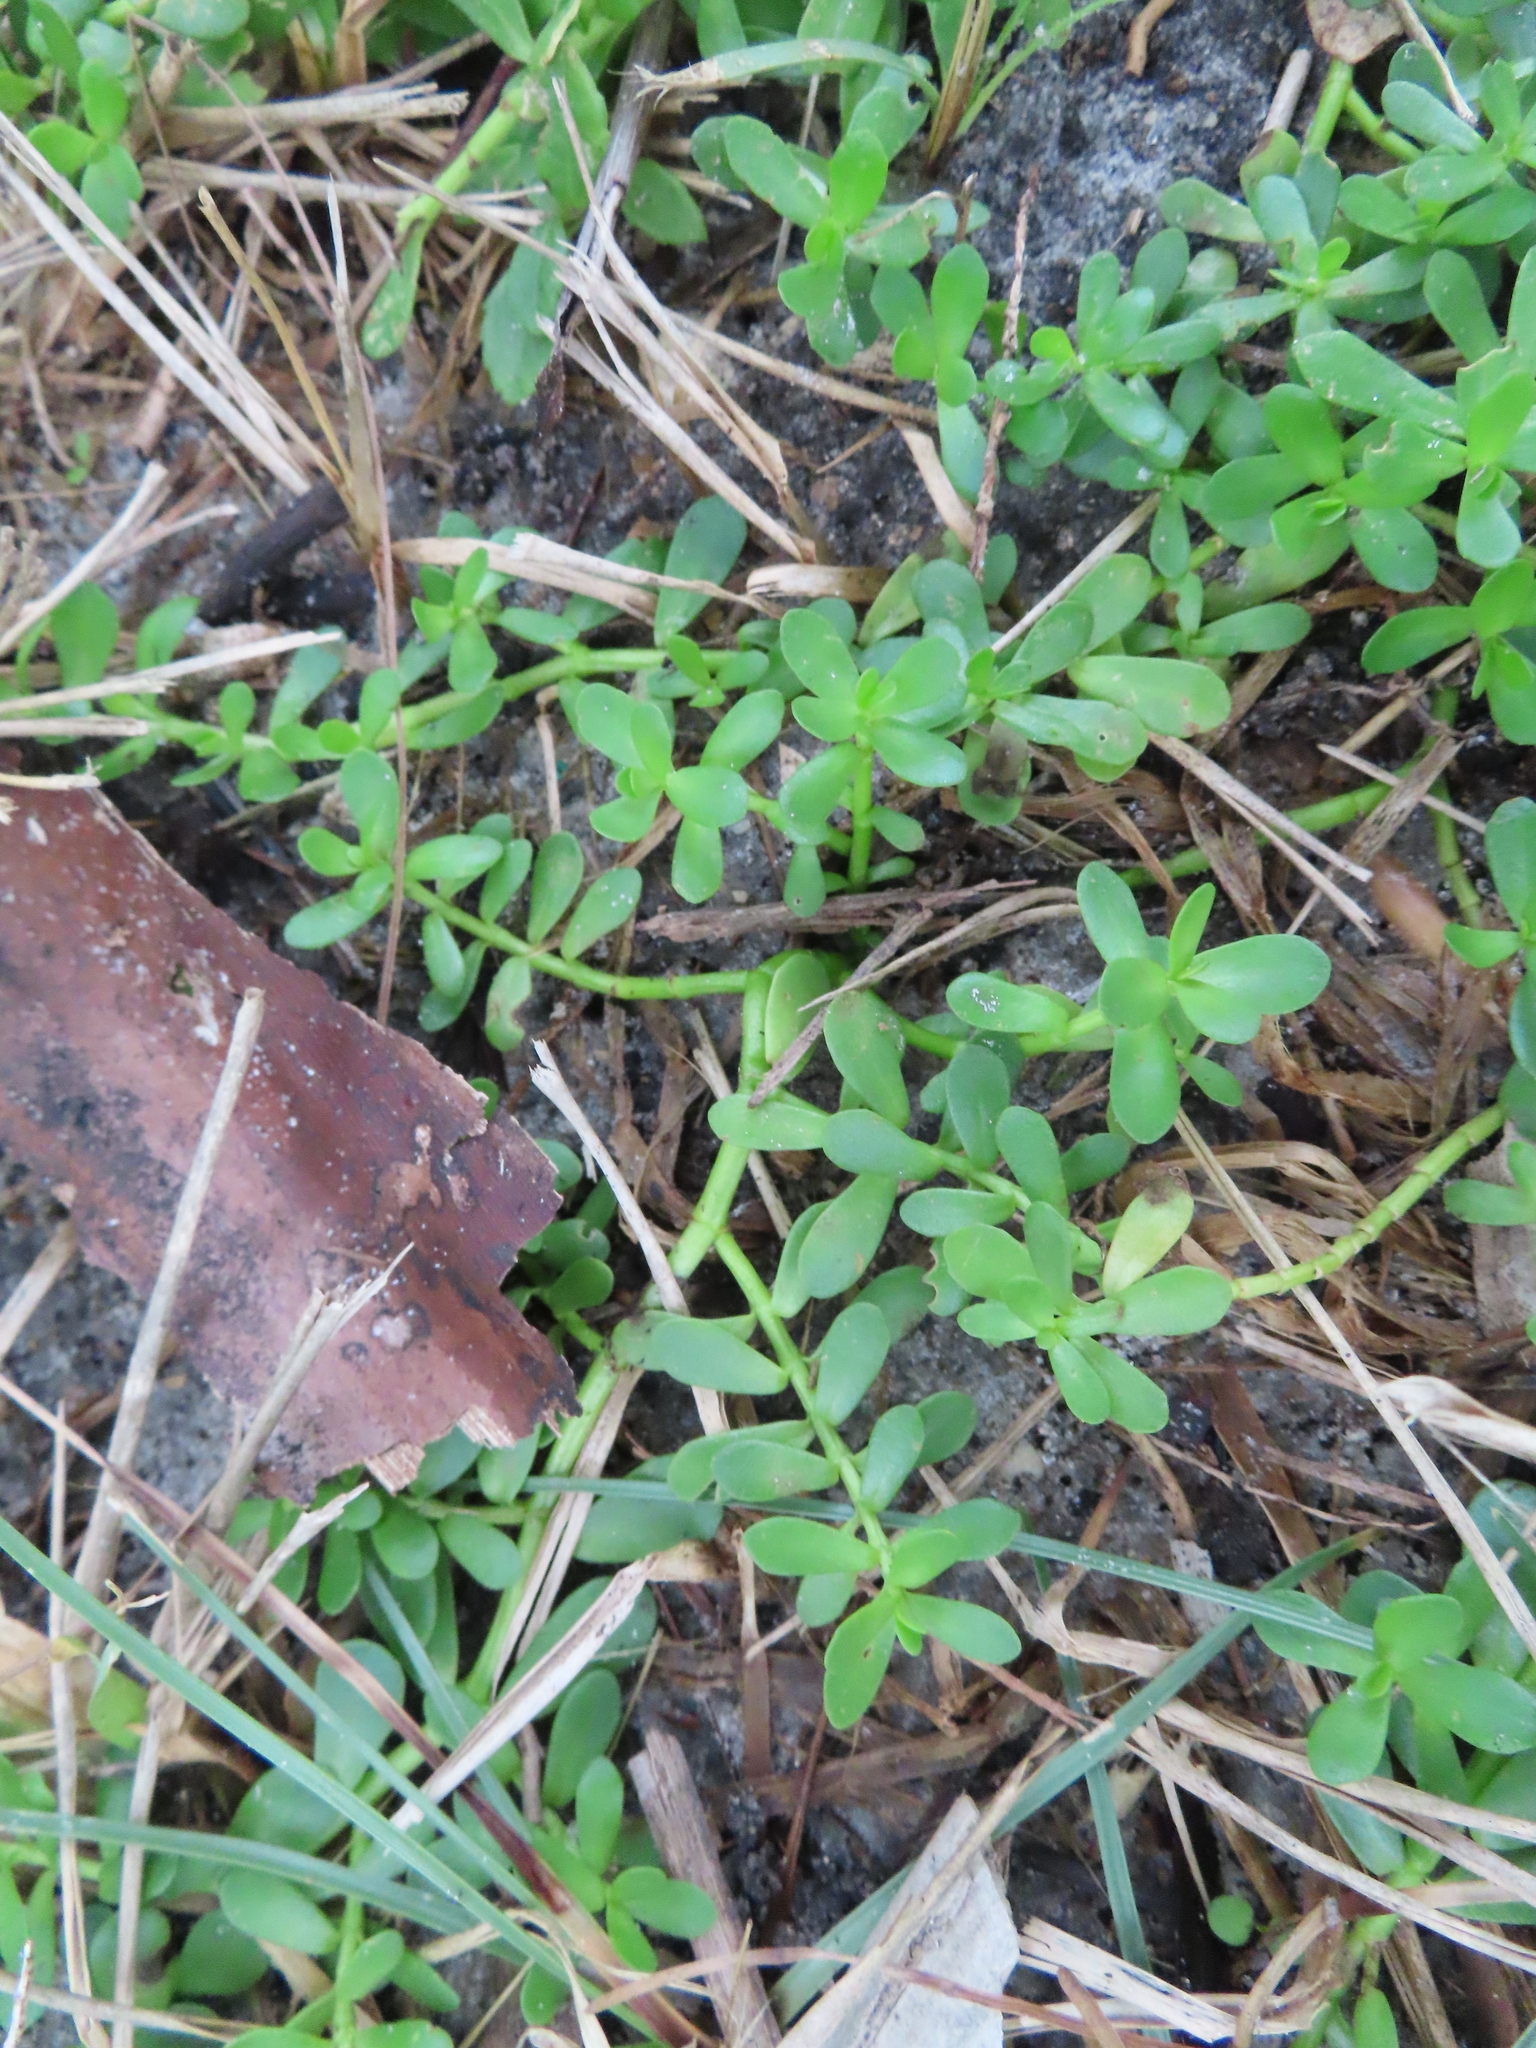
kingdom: Plantae
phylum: Tracheophyta
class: Magnoliopsida
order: Lamiales
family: Plantaginaceae
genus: Bacopa
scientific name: Bacopa monnieri
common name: Indian-pennywort
